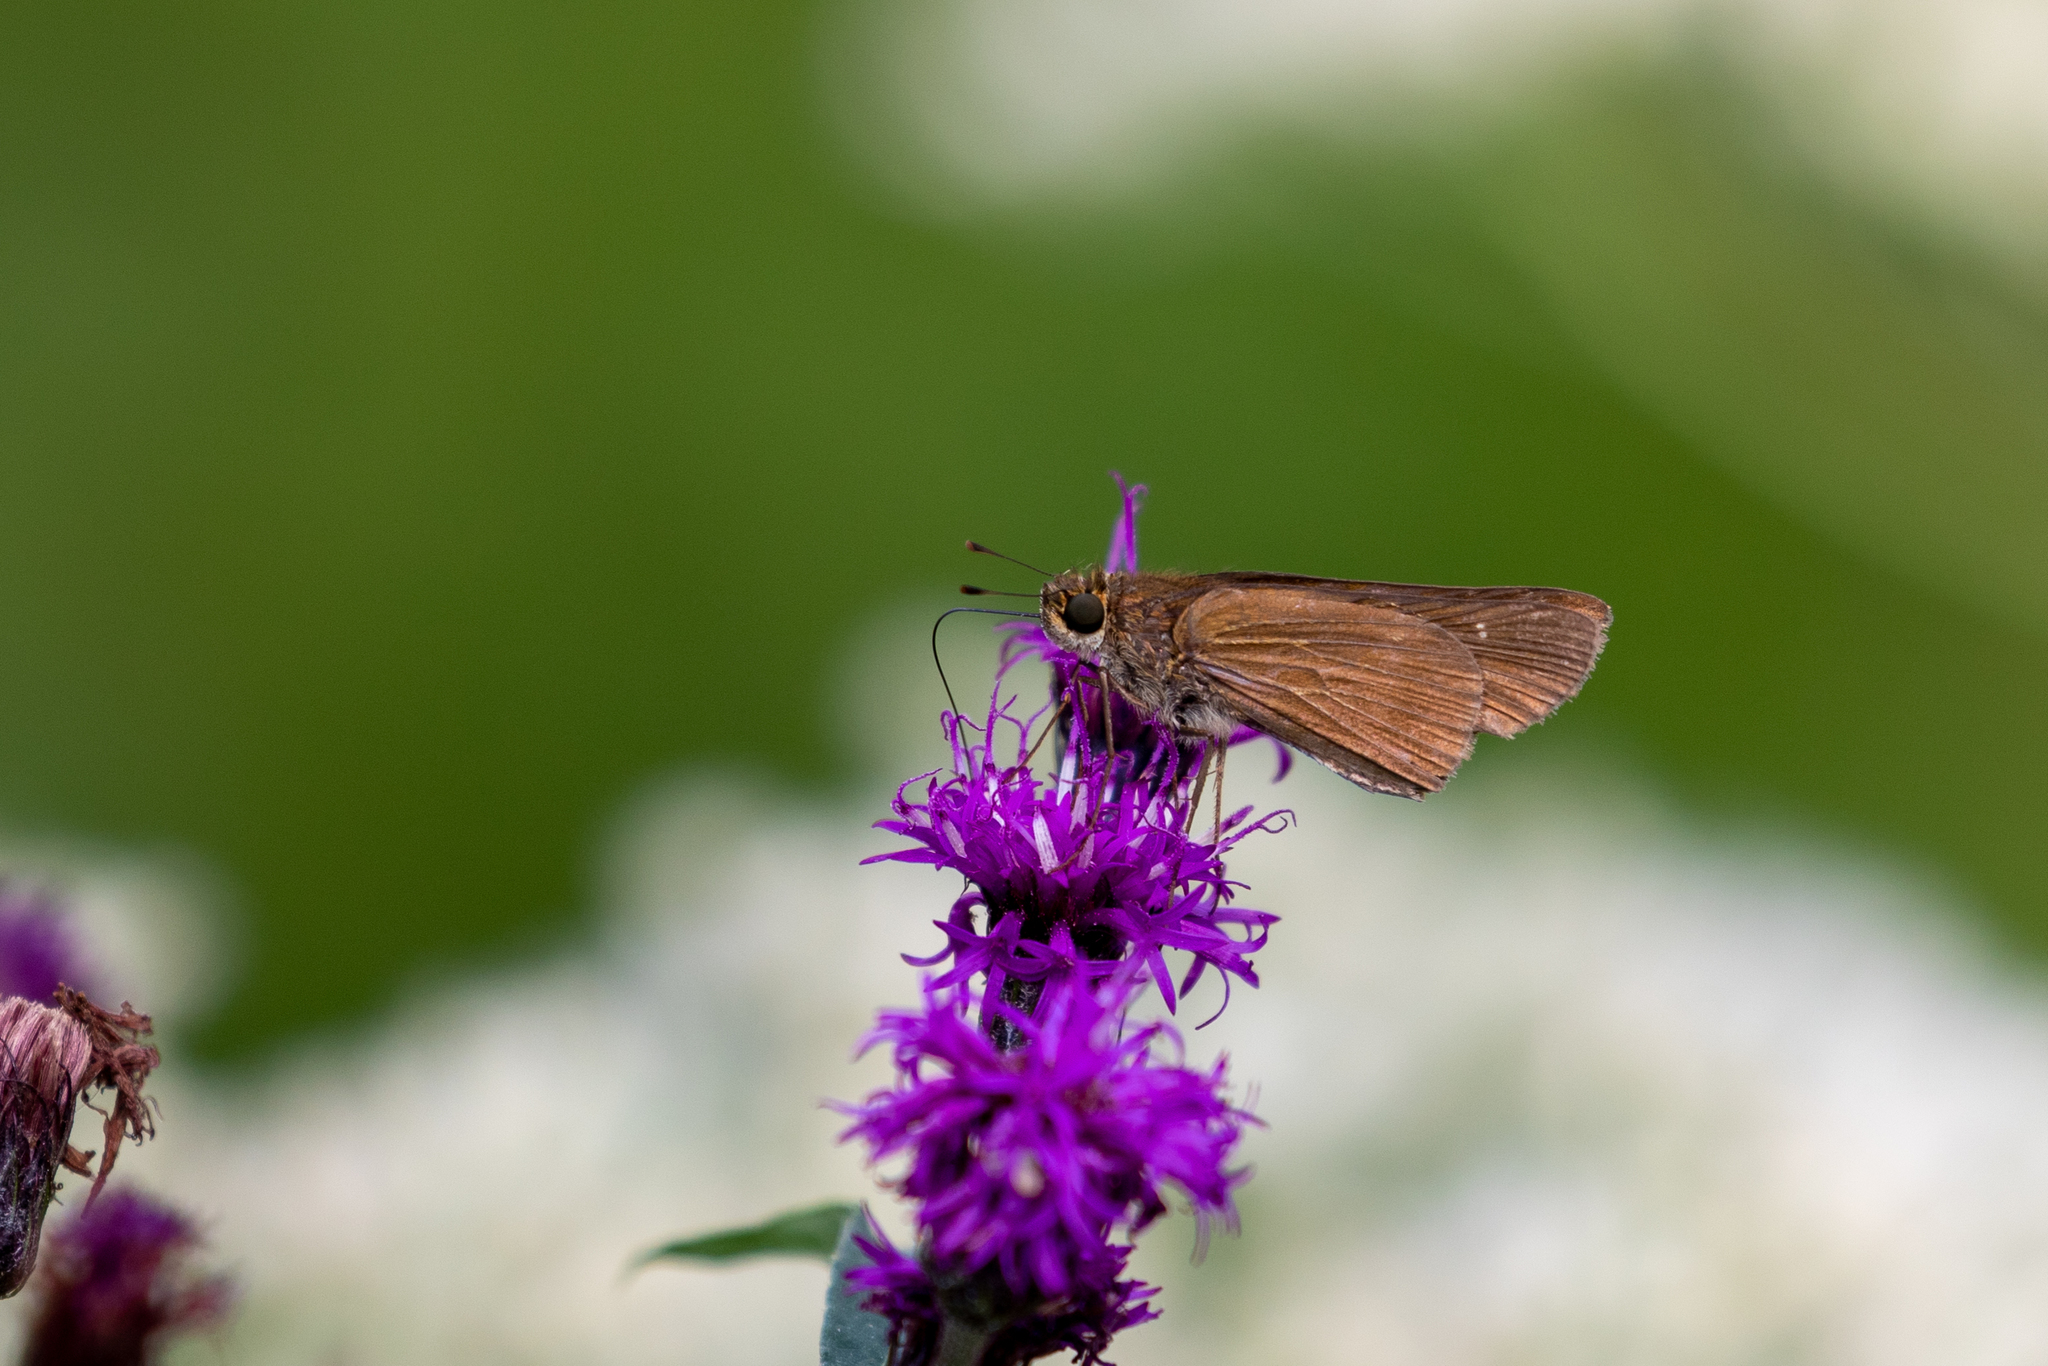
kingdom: Animalia
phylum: Arthropoda
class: Insecta
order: Lepidoptera
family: Hesperiidae
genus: Panoquina
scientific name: Panoquina ocola
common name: Ocola skipper
